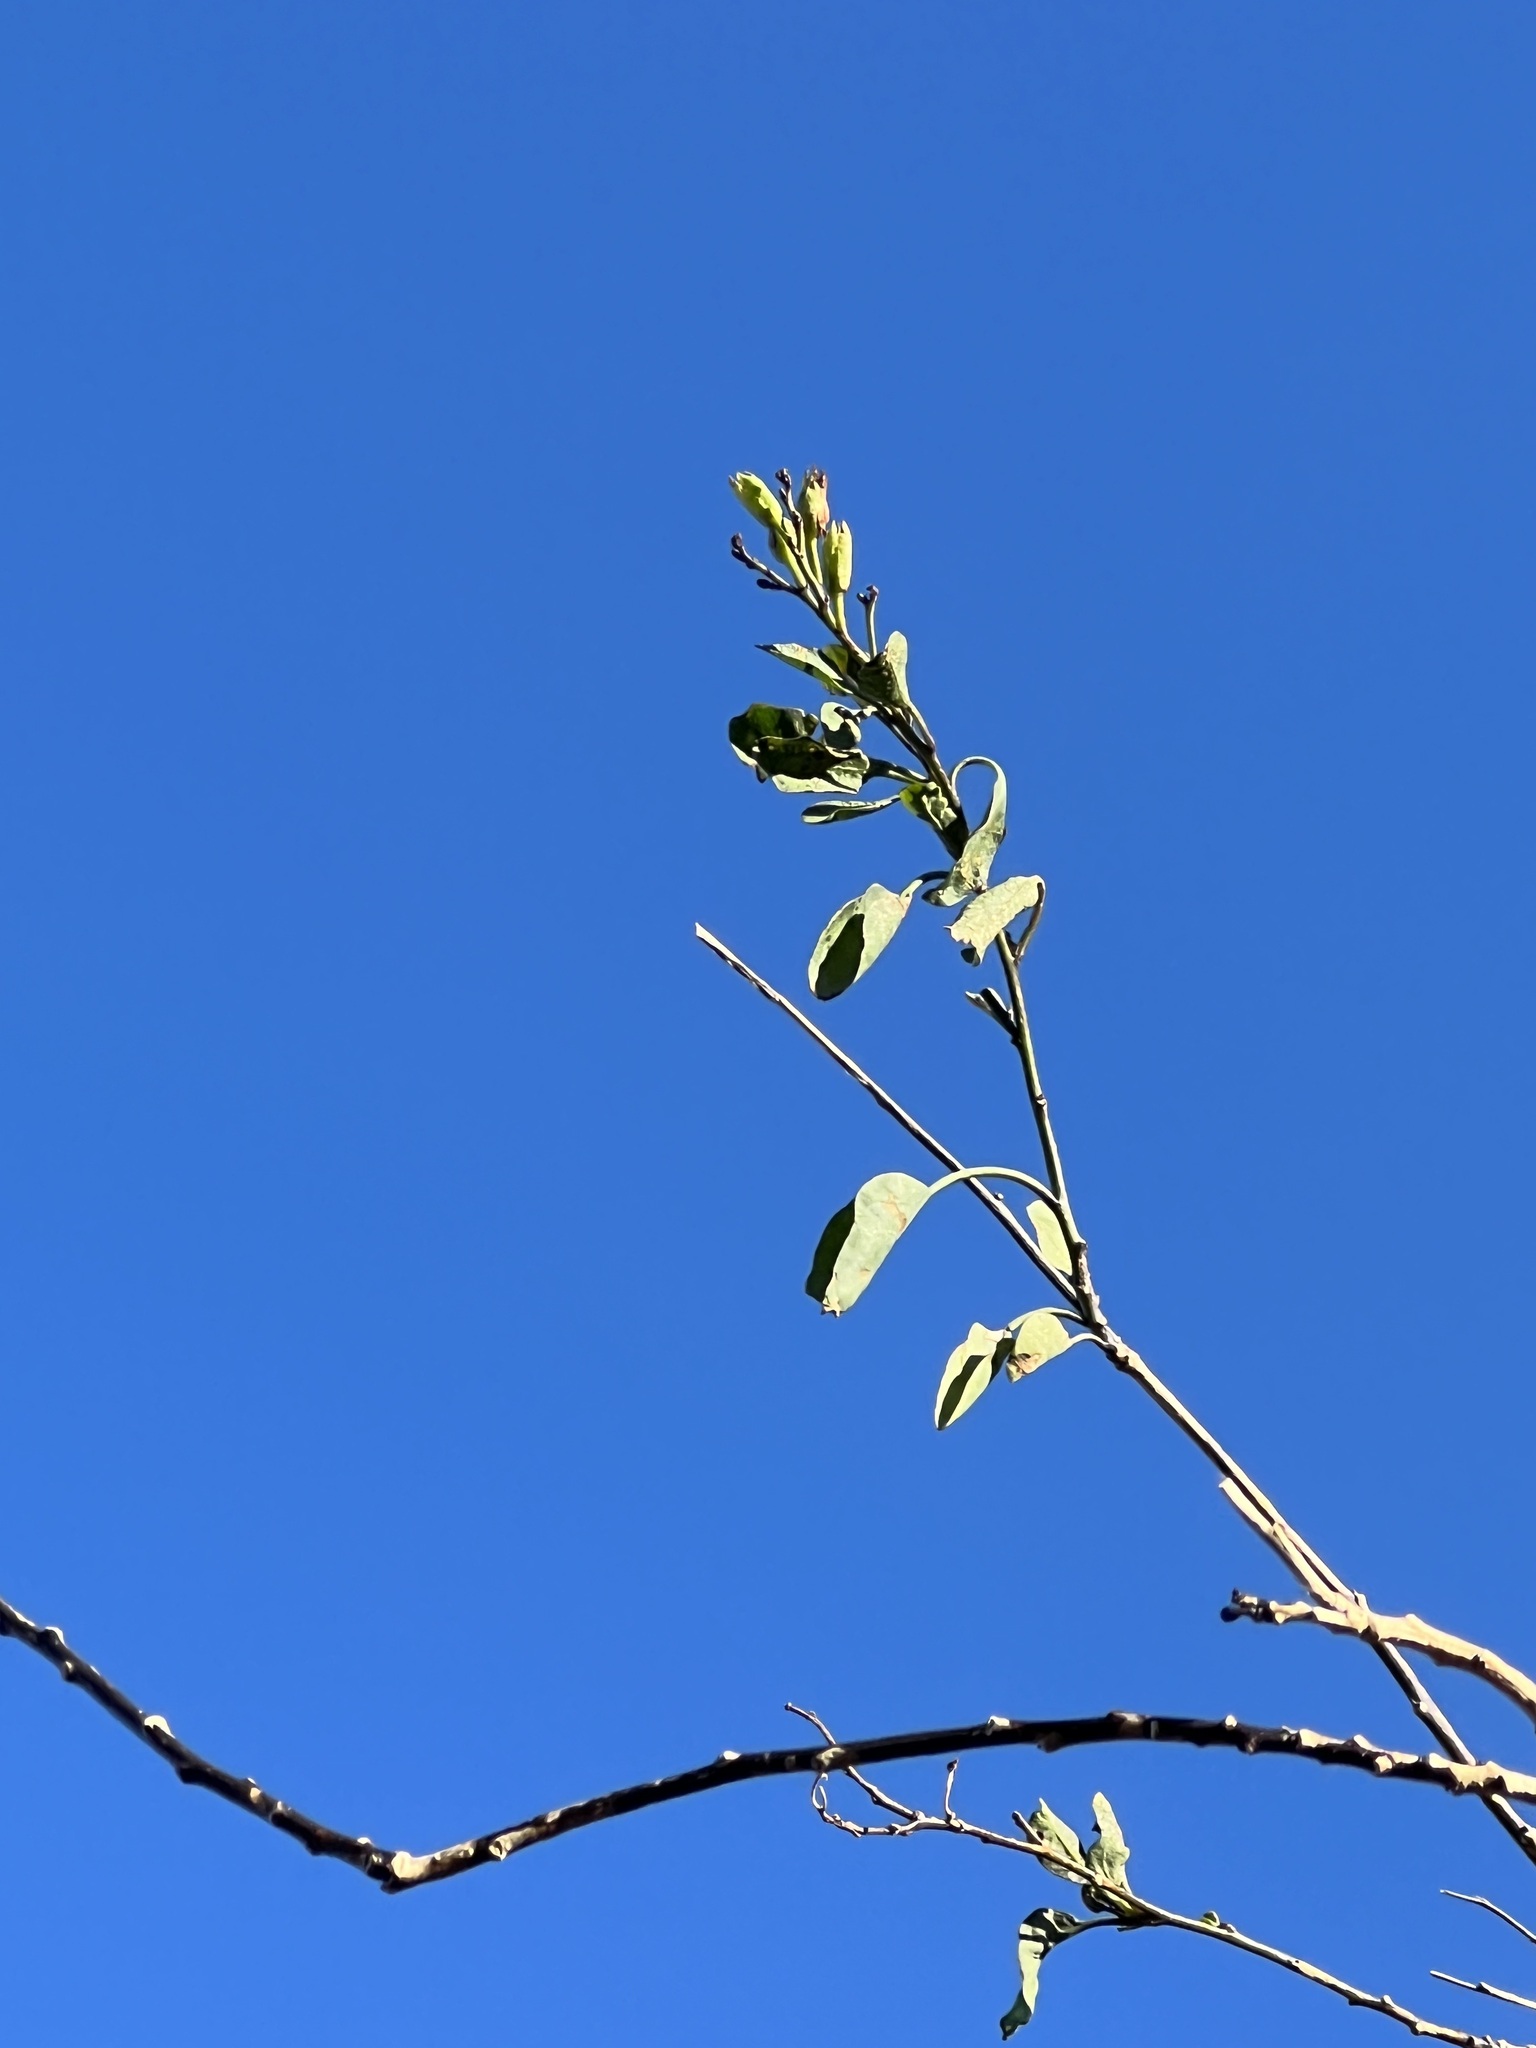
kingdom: Plantae
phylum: Tracheophyta
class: Magnoliopsida
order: Solanales
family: Solanaceae
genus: Nicotiana
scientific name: Nicotiana glauca
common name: Tree tobacco
